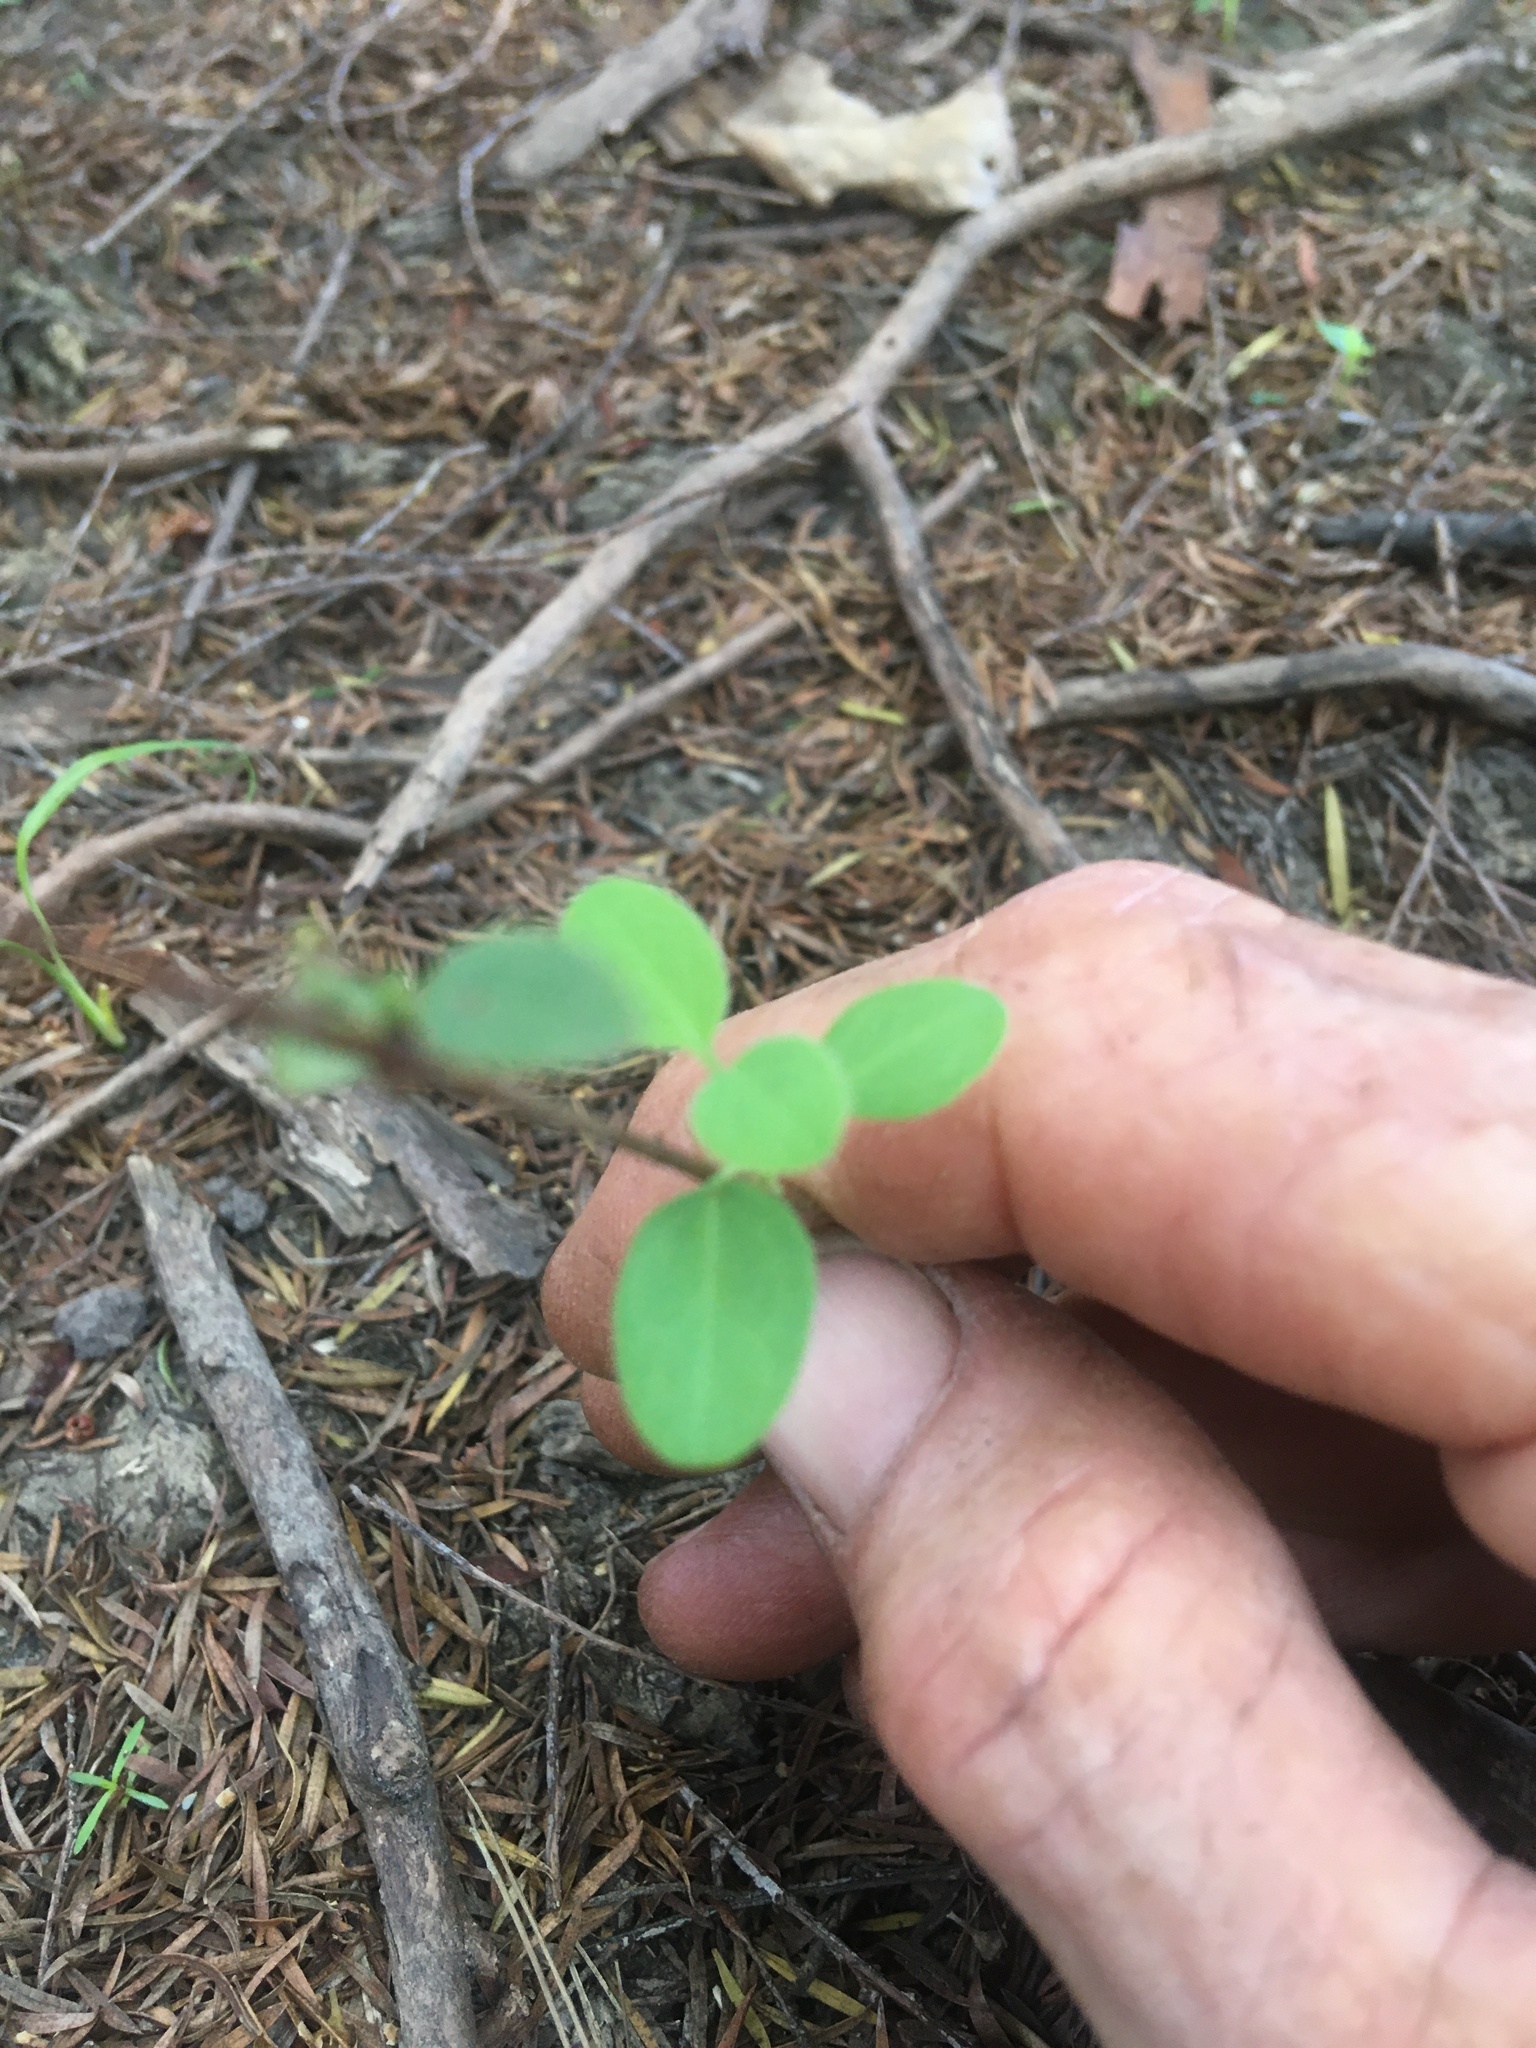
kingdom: Plantae
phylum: Tracheophyta
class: Magnoliopsida
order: Dipsacales
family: Caprifoliaceae
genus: Lonicera
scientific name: Lonicera japonica
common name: Japanese honeysuckle
